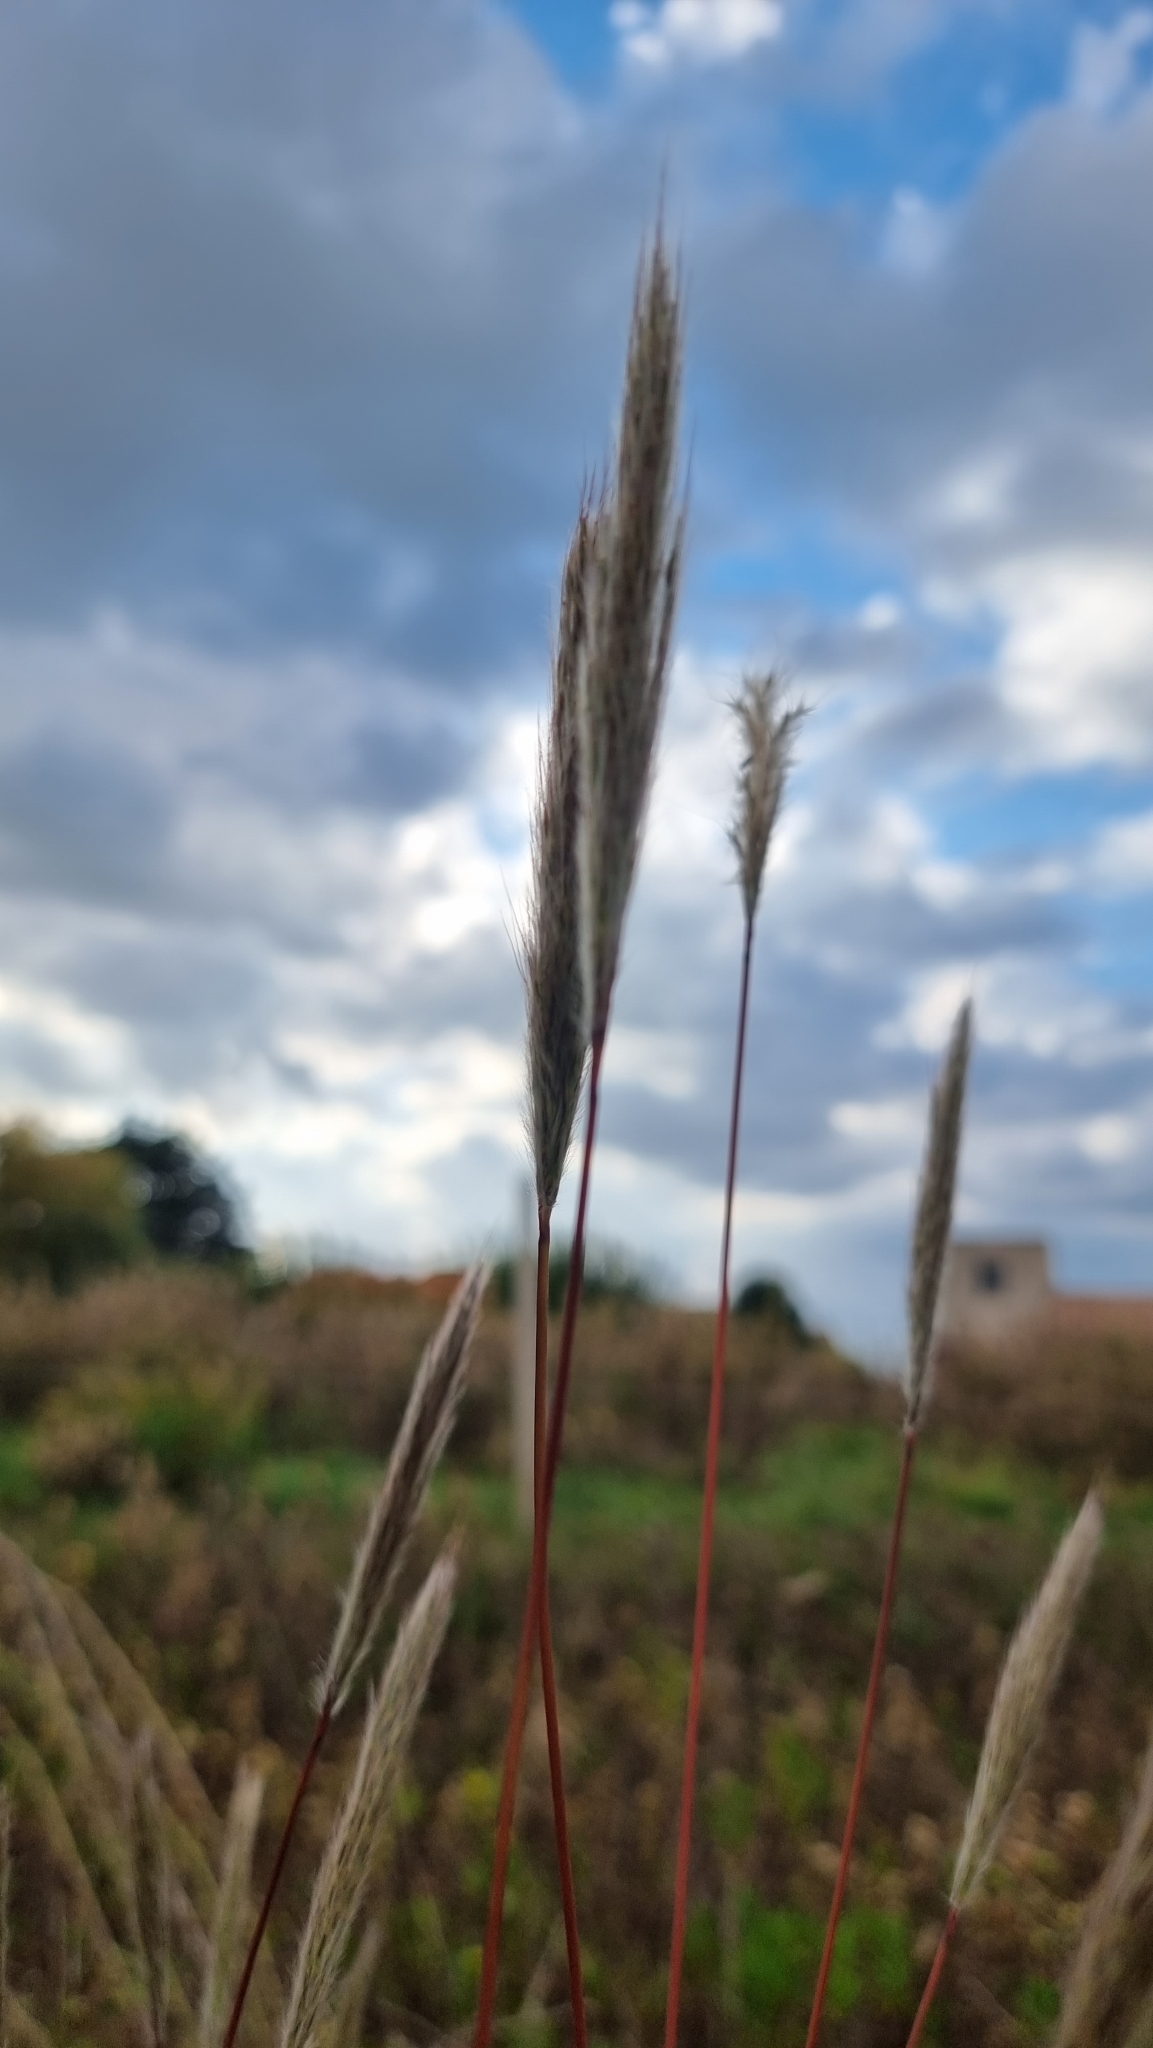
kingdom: Plantae
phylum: Tracheophyta
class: Liliopsida
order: Poales
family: Poaceae
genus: Bothriochloa
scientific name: Bothriochloa barbinodis
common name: Cane bluestem
